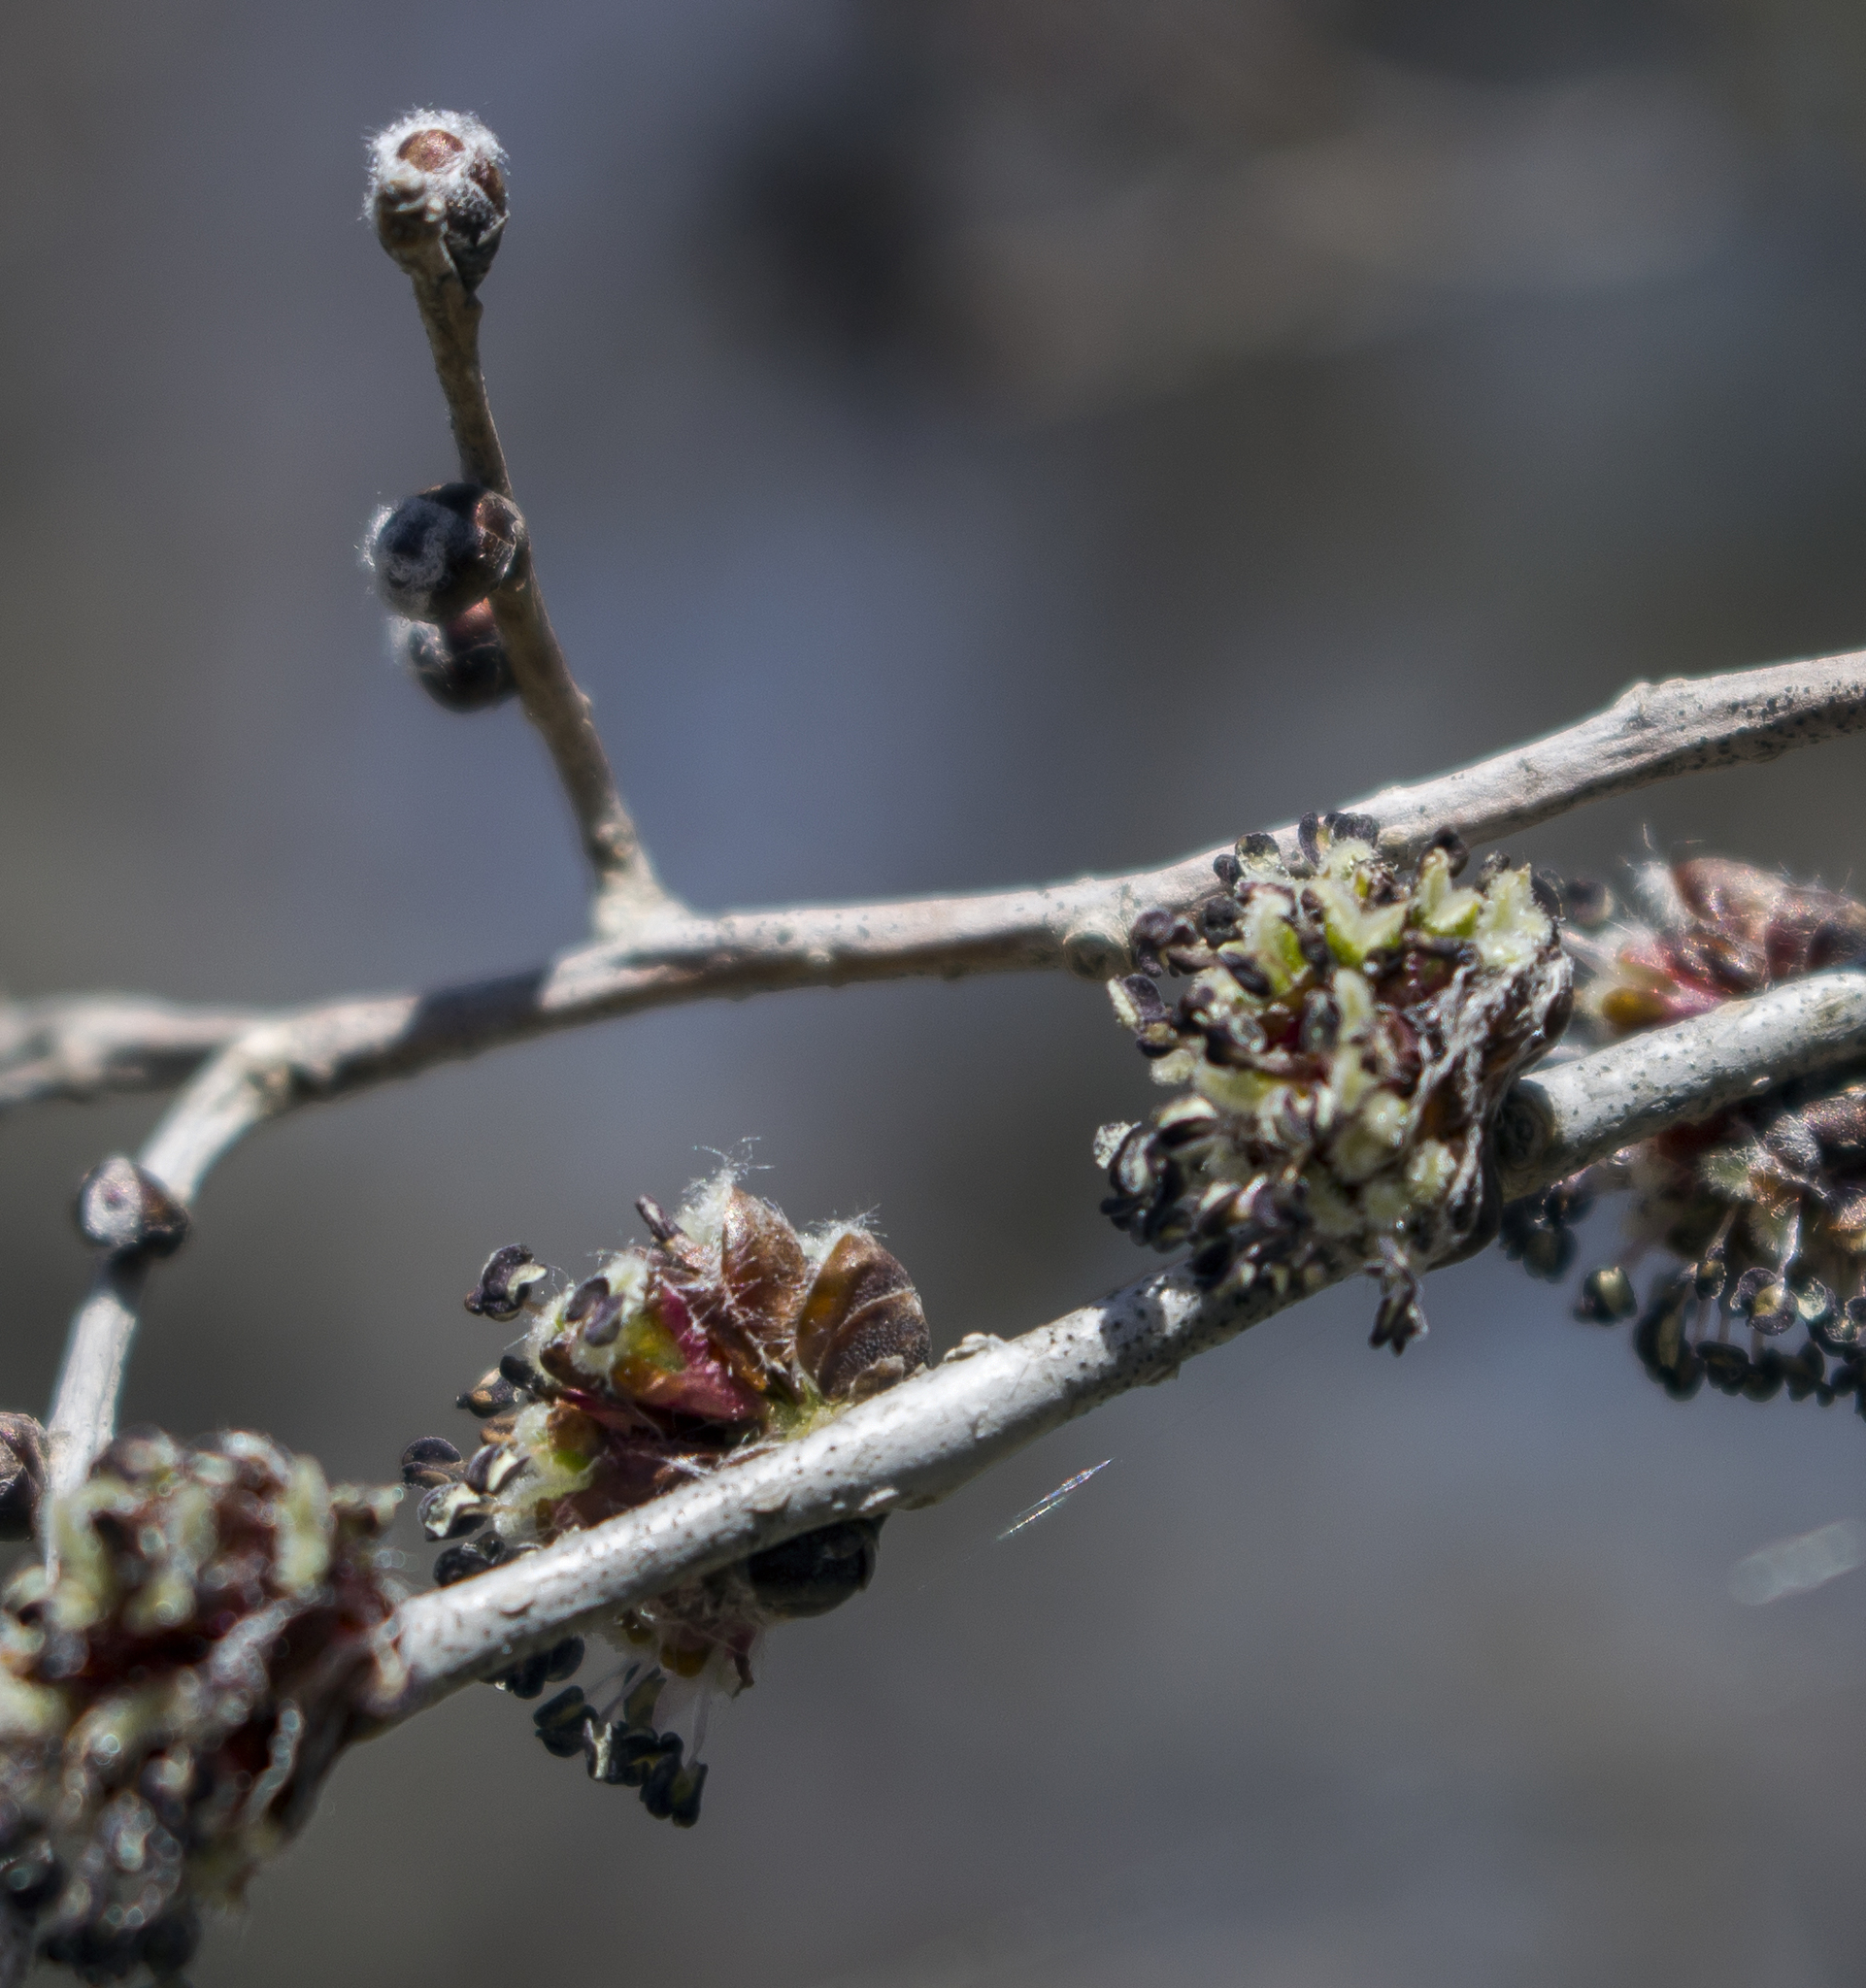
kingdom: Plantae
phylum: Tracheophyta
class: Magnoliopsida
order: Rosales
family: Ulmaceae
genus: Ulmus
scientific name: Ulmus pumila
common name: Siberian elm
